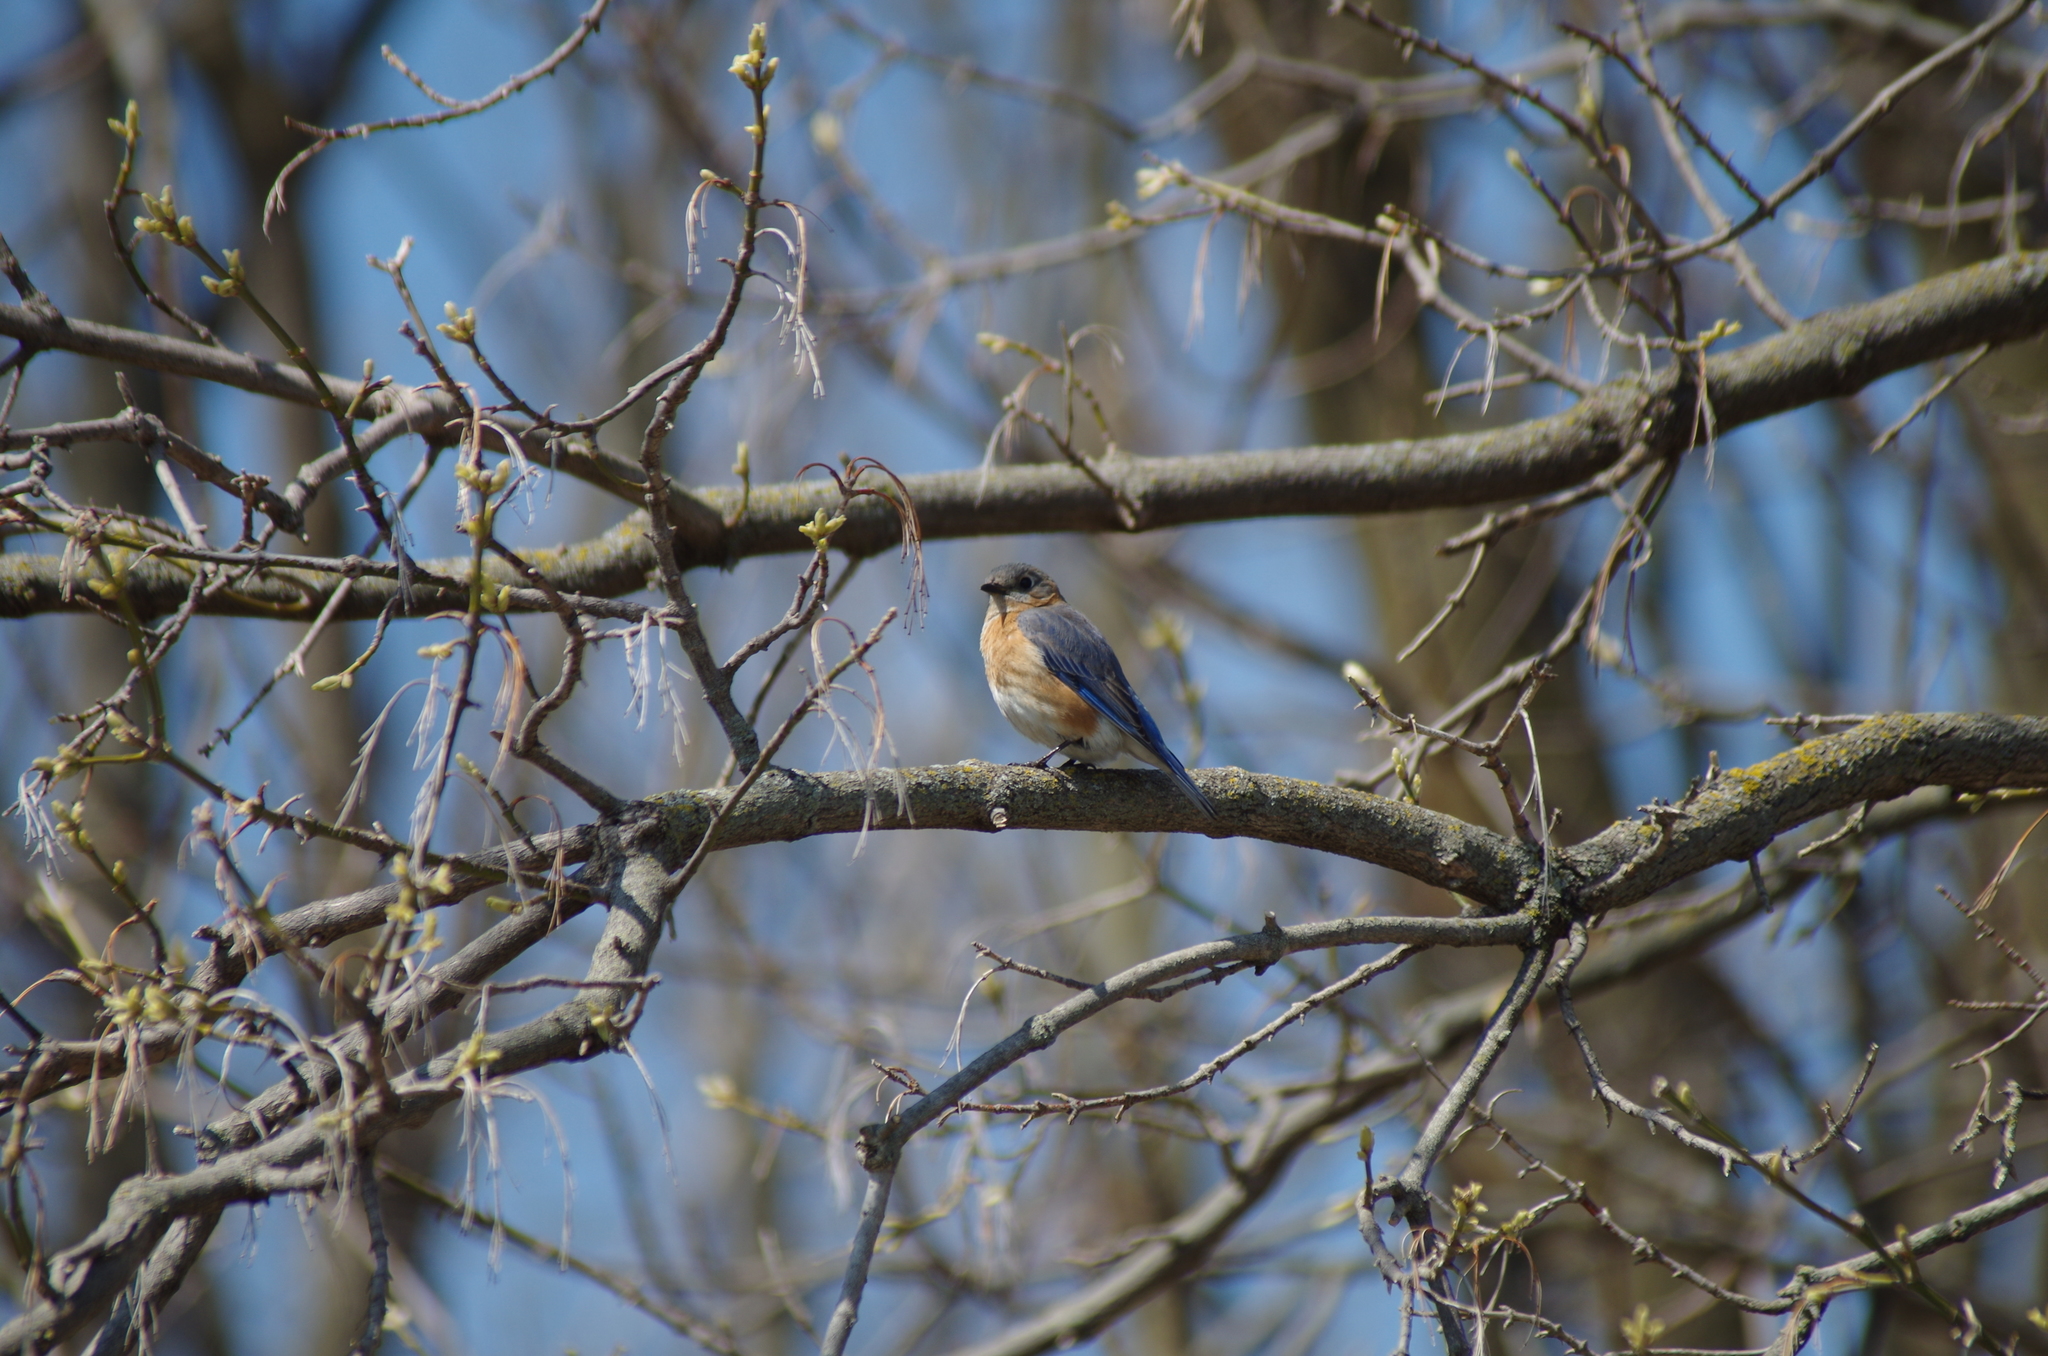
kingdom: Animalia
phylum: Chordata
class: Aves
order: Passeriformes
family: Turdidae
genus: Sialia
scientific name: Sialia sialis
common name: Eastern bluebird
